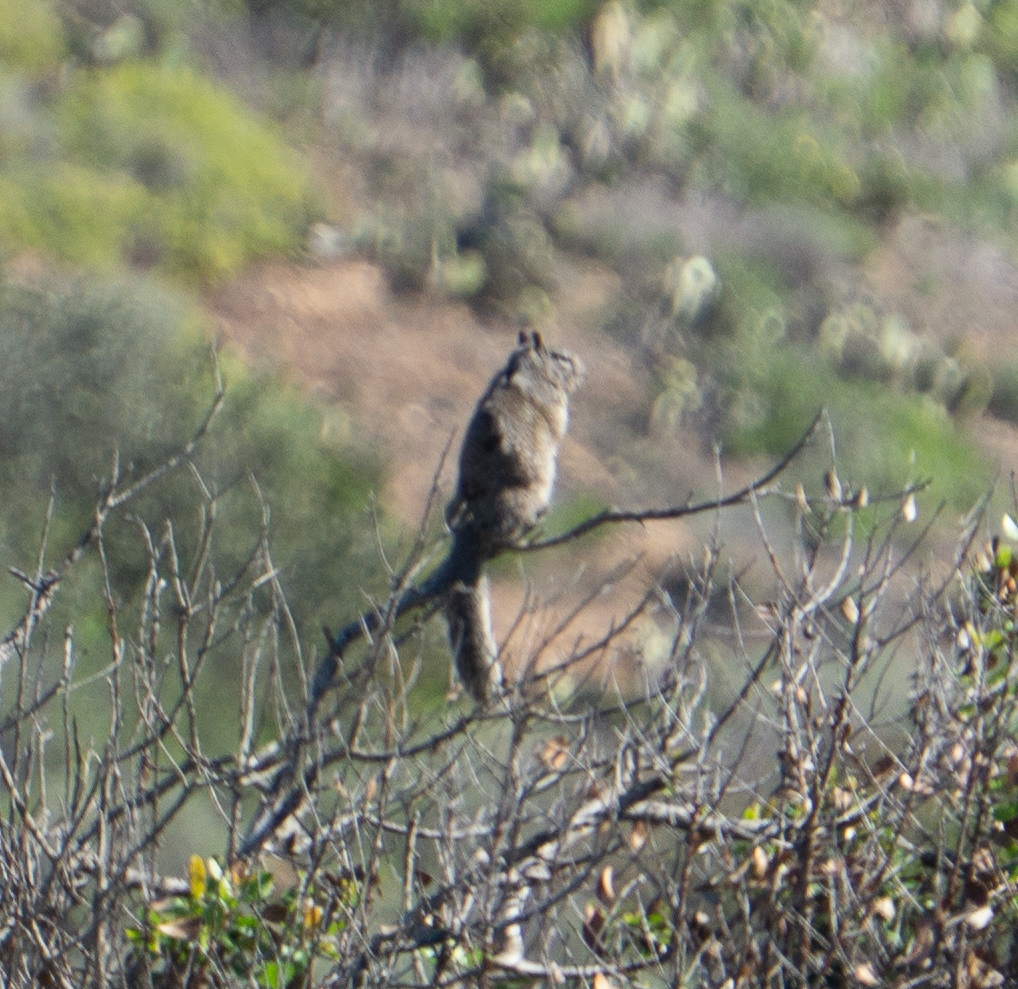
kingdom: Animalia
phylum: Chordata
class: Mammalia
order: Rodentia
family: Sciuridae
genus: Otospermophilus
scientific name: Otospermophilus beecheyi
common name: California ground squirrel
